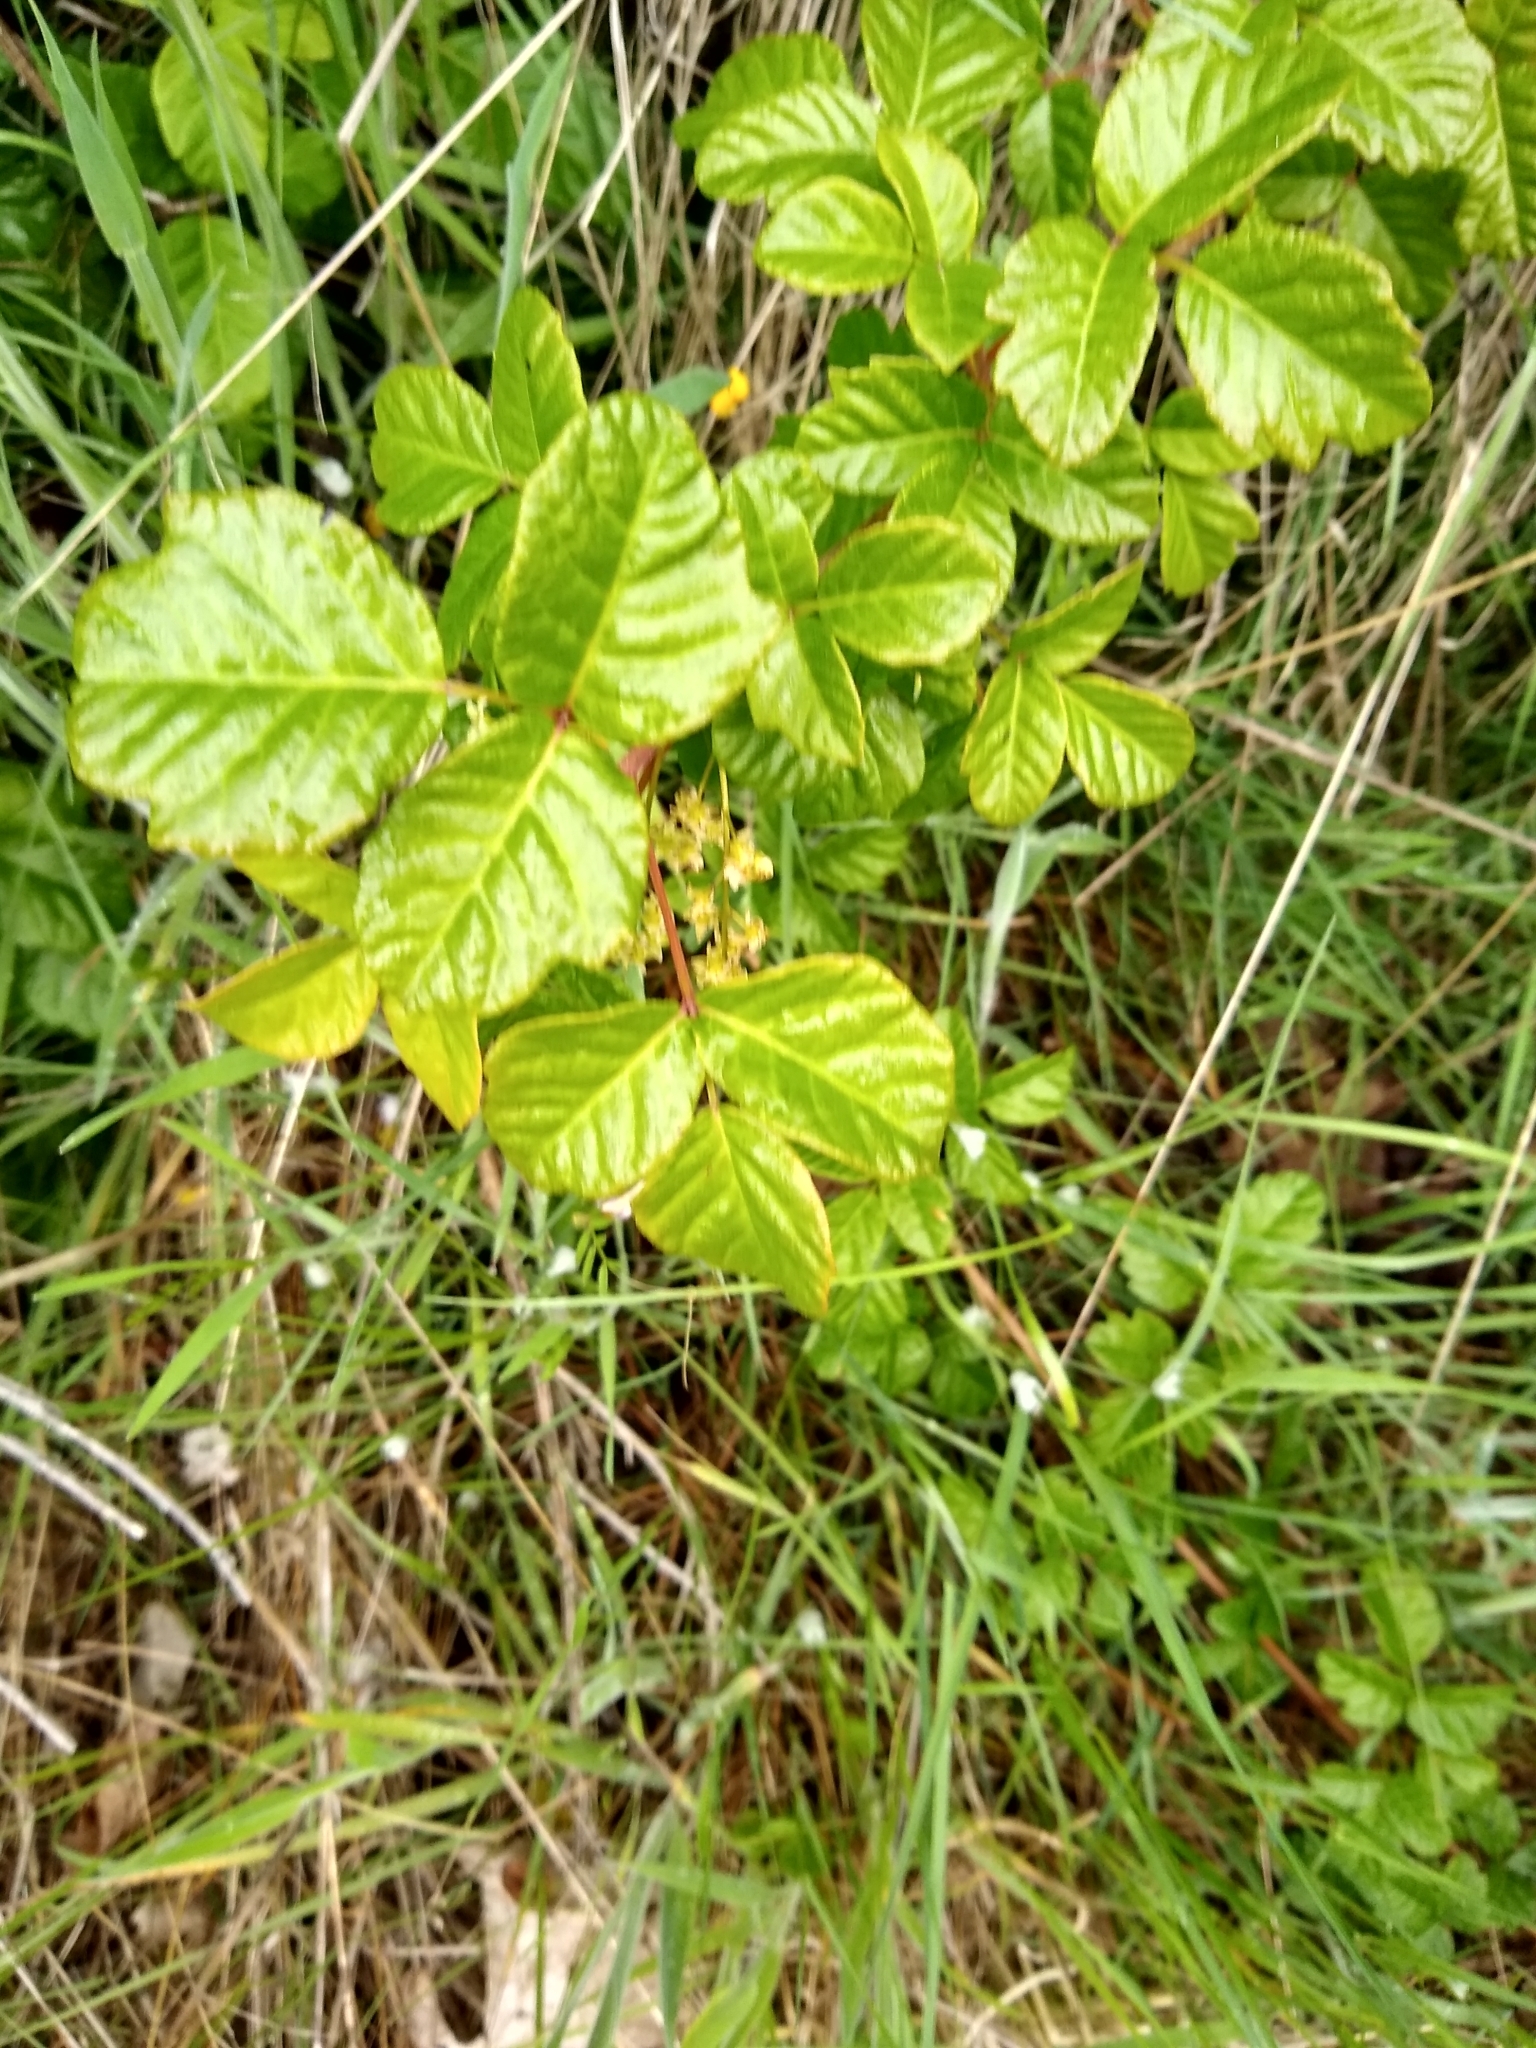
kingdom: Plantae
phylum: Tracheophyta
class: Magnoliopsida
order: Sapindales
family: Anacardiaceae
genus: Toxicodendron
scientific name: Toxicodendron diversilobum
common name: Pacific poison-oak
